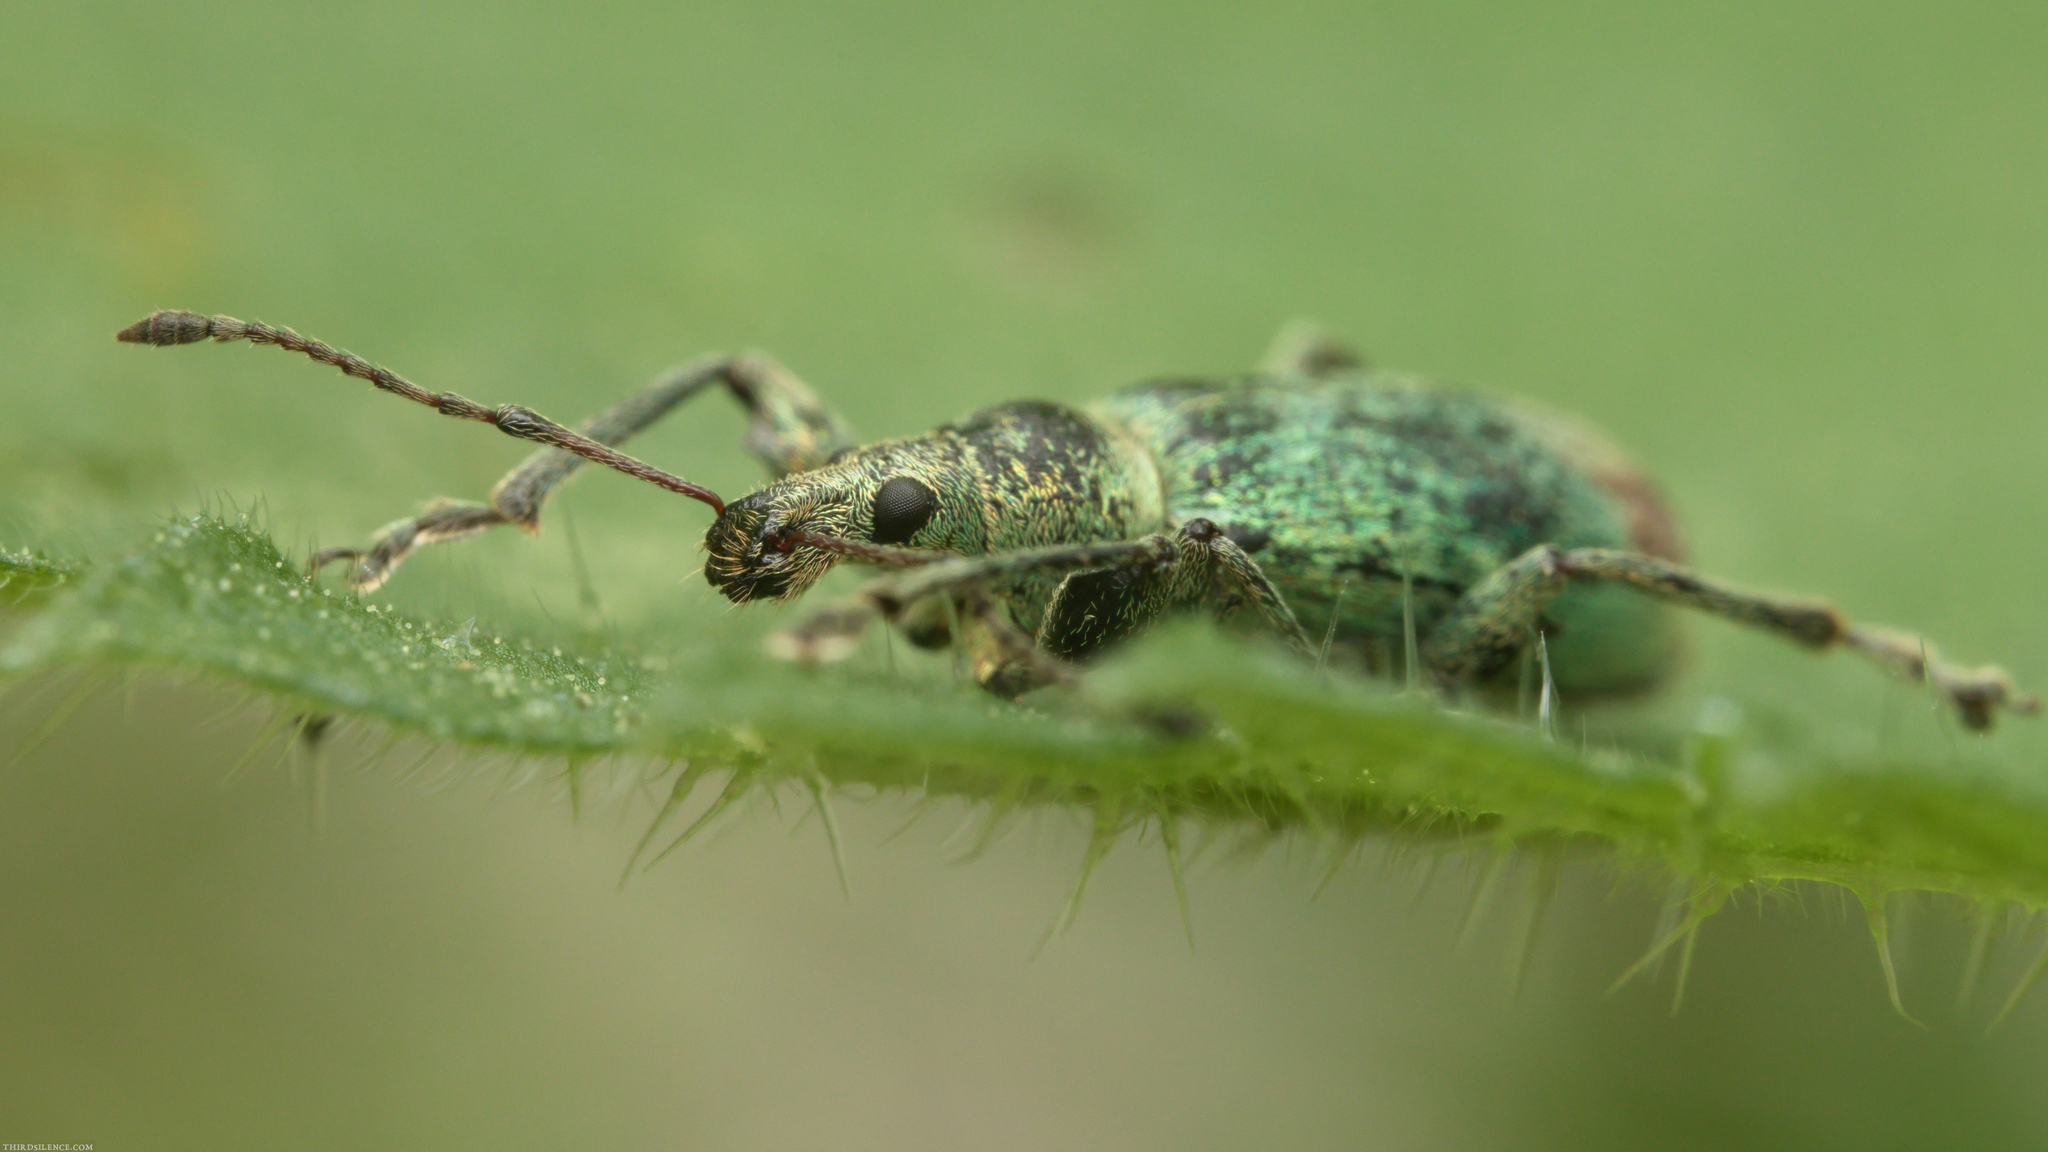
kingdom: Animalia
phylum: Arthropoda
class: Insecta
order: Coleoptera
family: Curculionidae
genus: Phyllobius
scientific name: Phyllobius pomaceus
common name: Green nettle weevil
